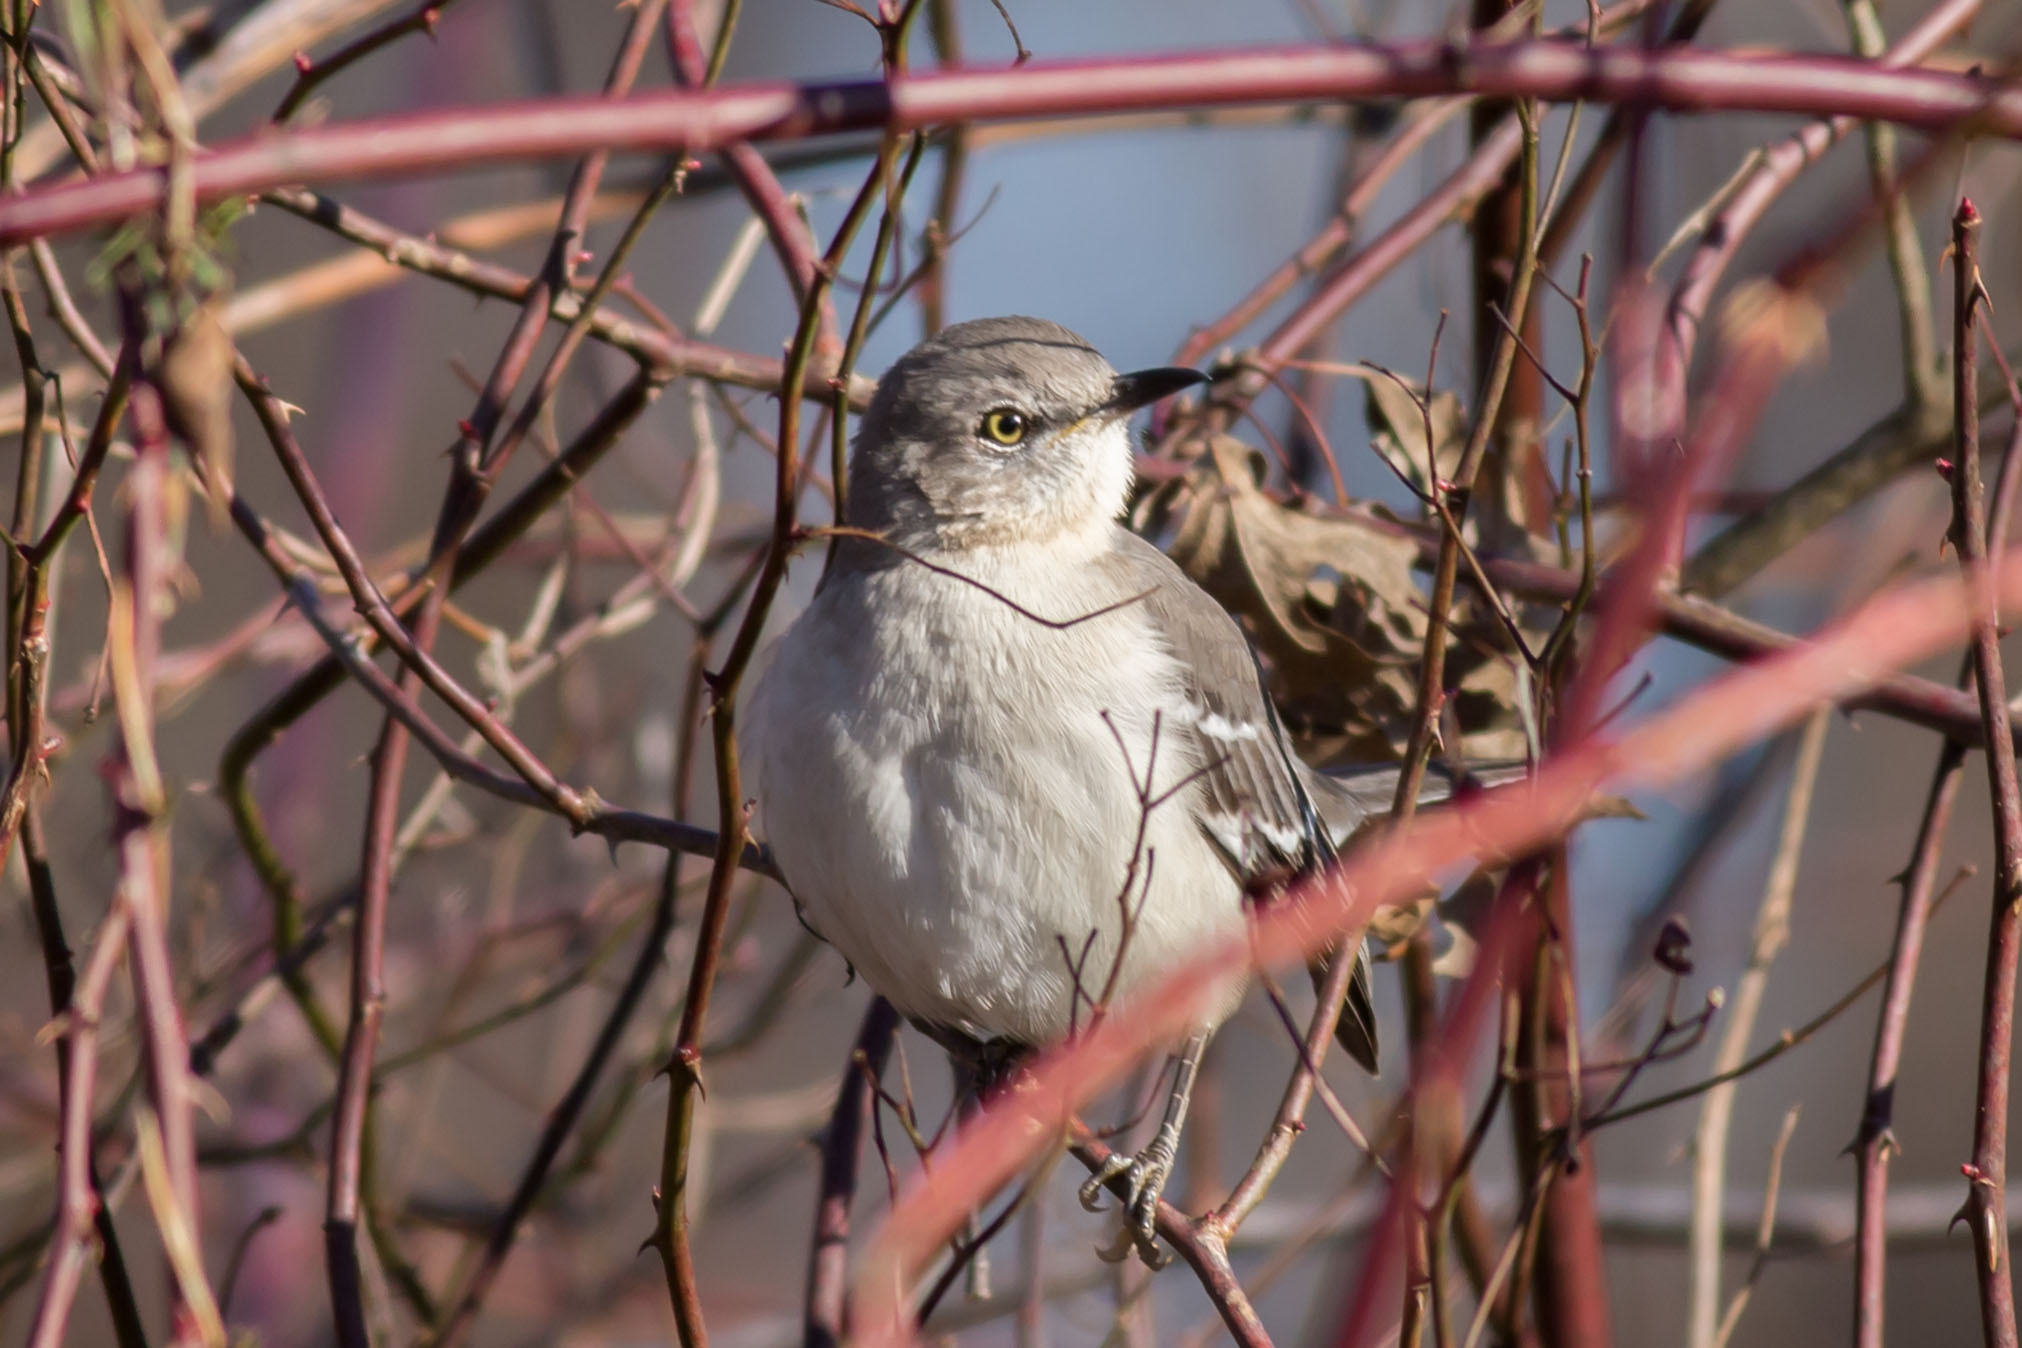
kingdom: Animalia
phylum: Chordata
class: Aves
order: Passeriformes
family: Mimidae
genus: Mimus
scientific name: Mimus polyglottos
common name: Northern mockingbird
